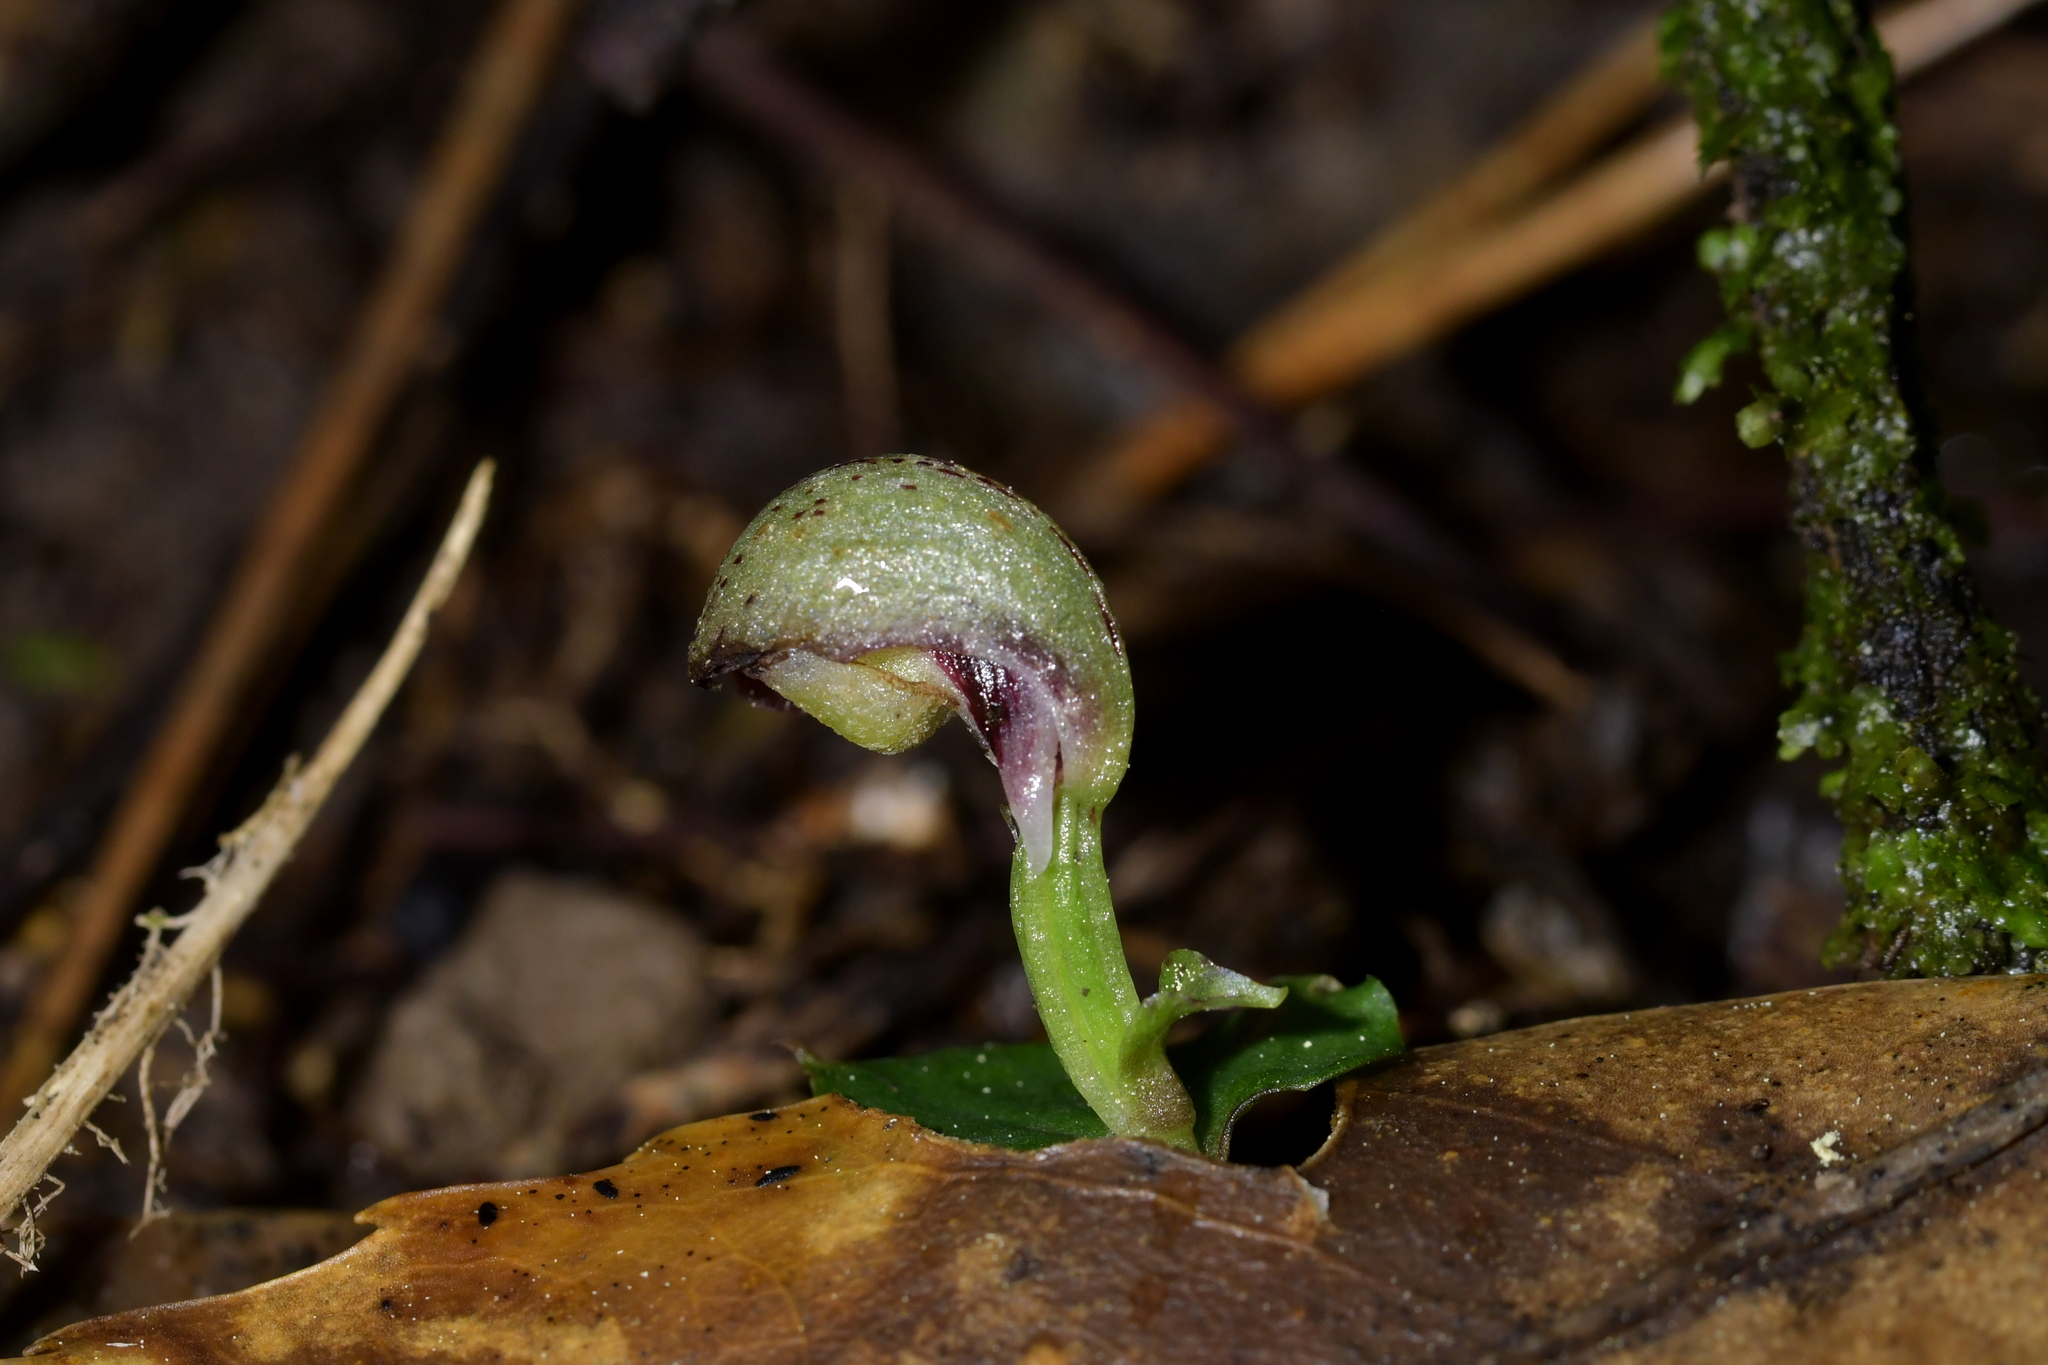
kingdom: Plantae
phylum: Tracheophyta
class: Liliopsida
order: Asparagales
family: Orchidaceae
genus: Corybas
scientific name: Corybas cheesemanii
